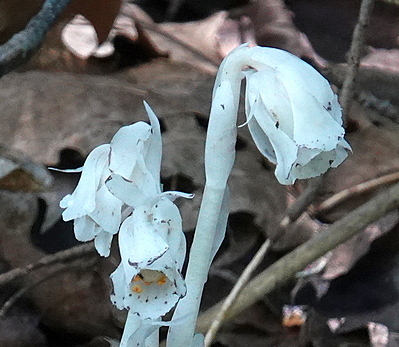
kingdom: Plantae
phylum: Tracheophyta
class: Magnoliopsida
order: Ericales
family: Ericaceae
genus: Monotropa
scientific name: Monotropa uniflora
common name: Convulsion root
